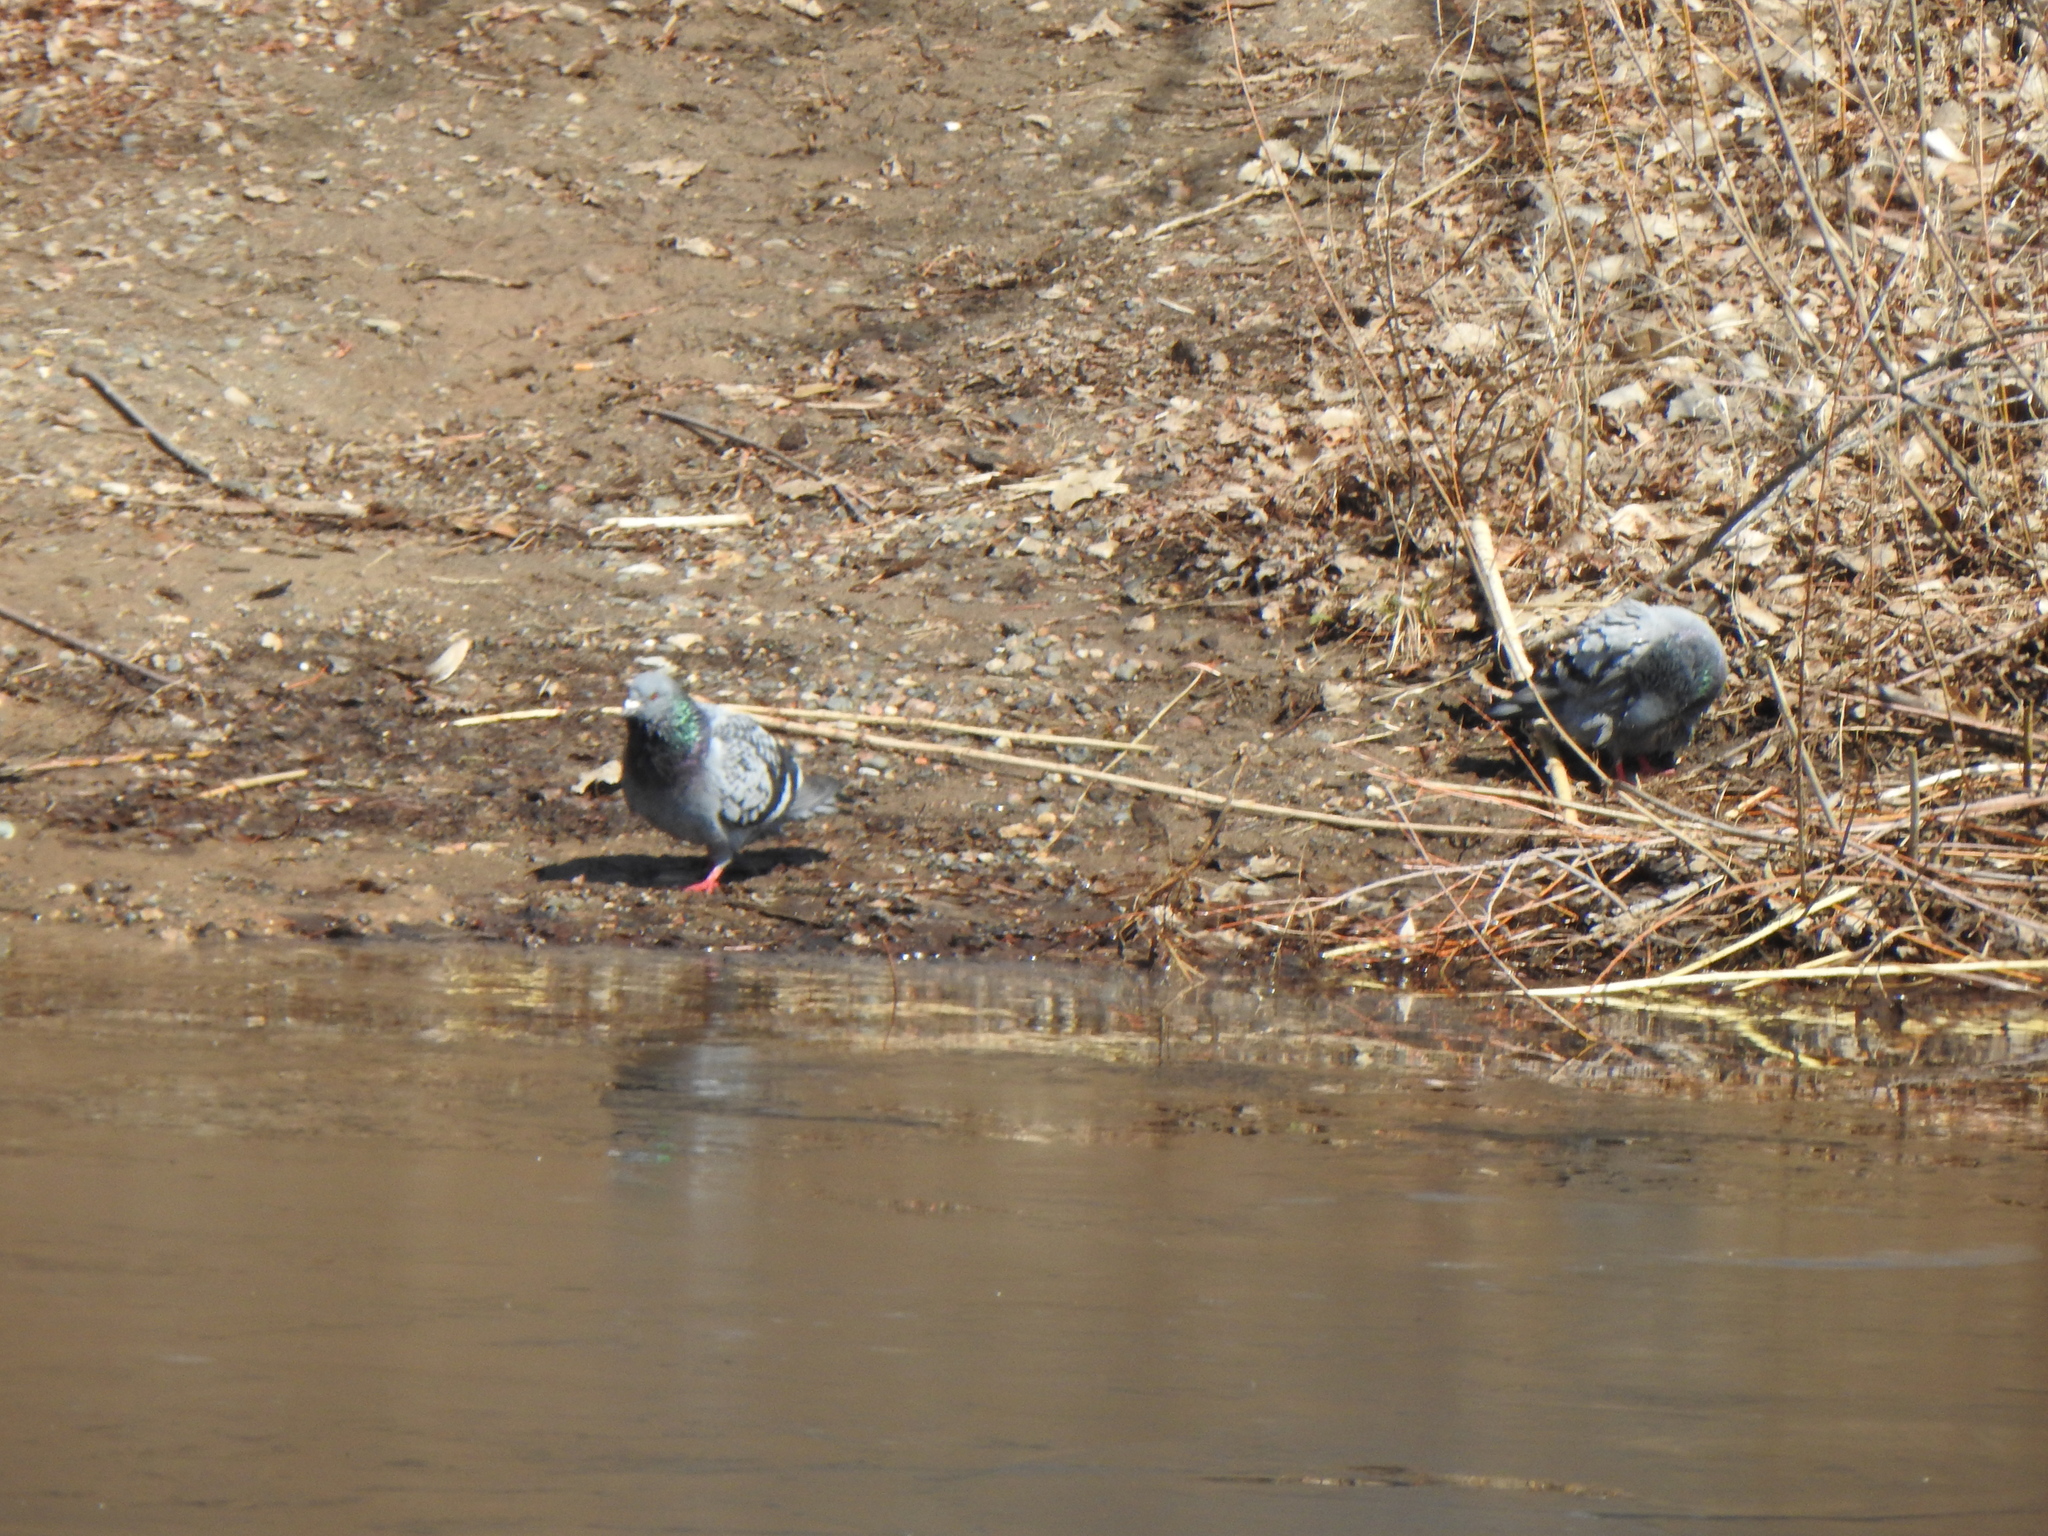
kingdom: Animalia
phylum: Chordata
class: Aves
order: Columbiformes
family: Columbidae
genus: Columba
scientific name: Columba livia
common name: Rock pigeon
